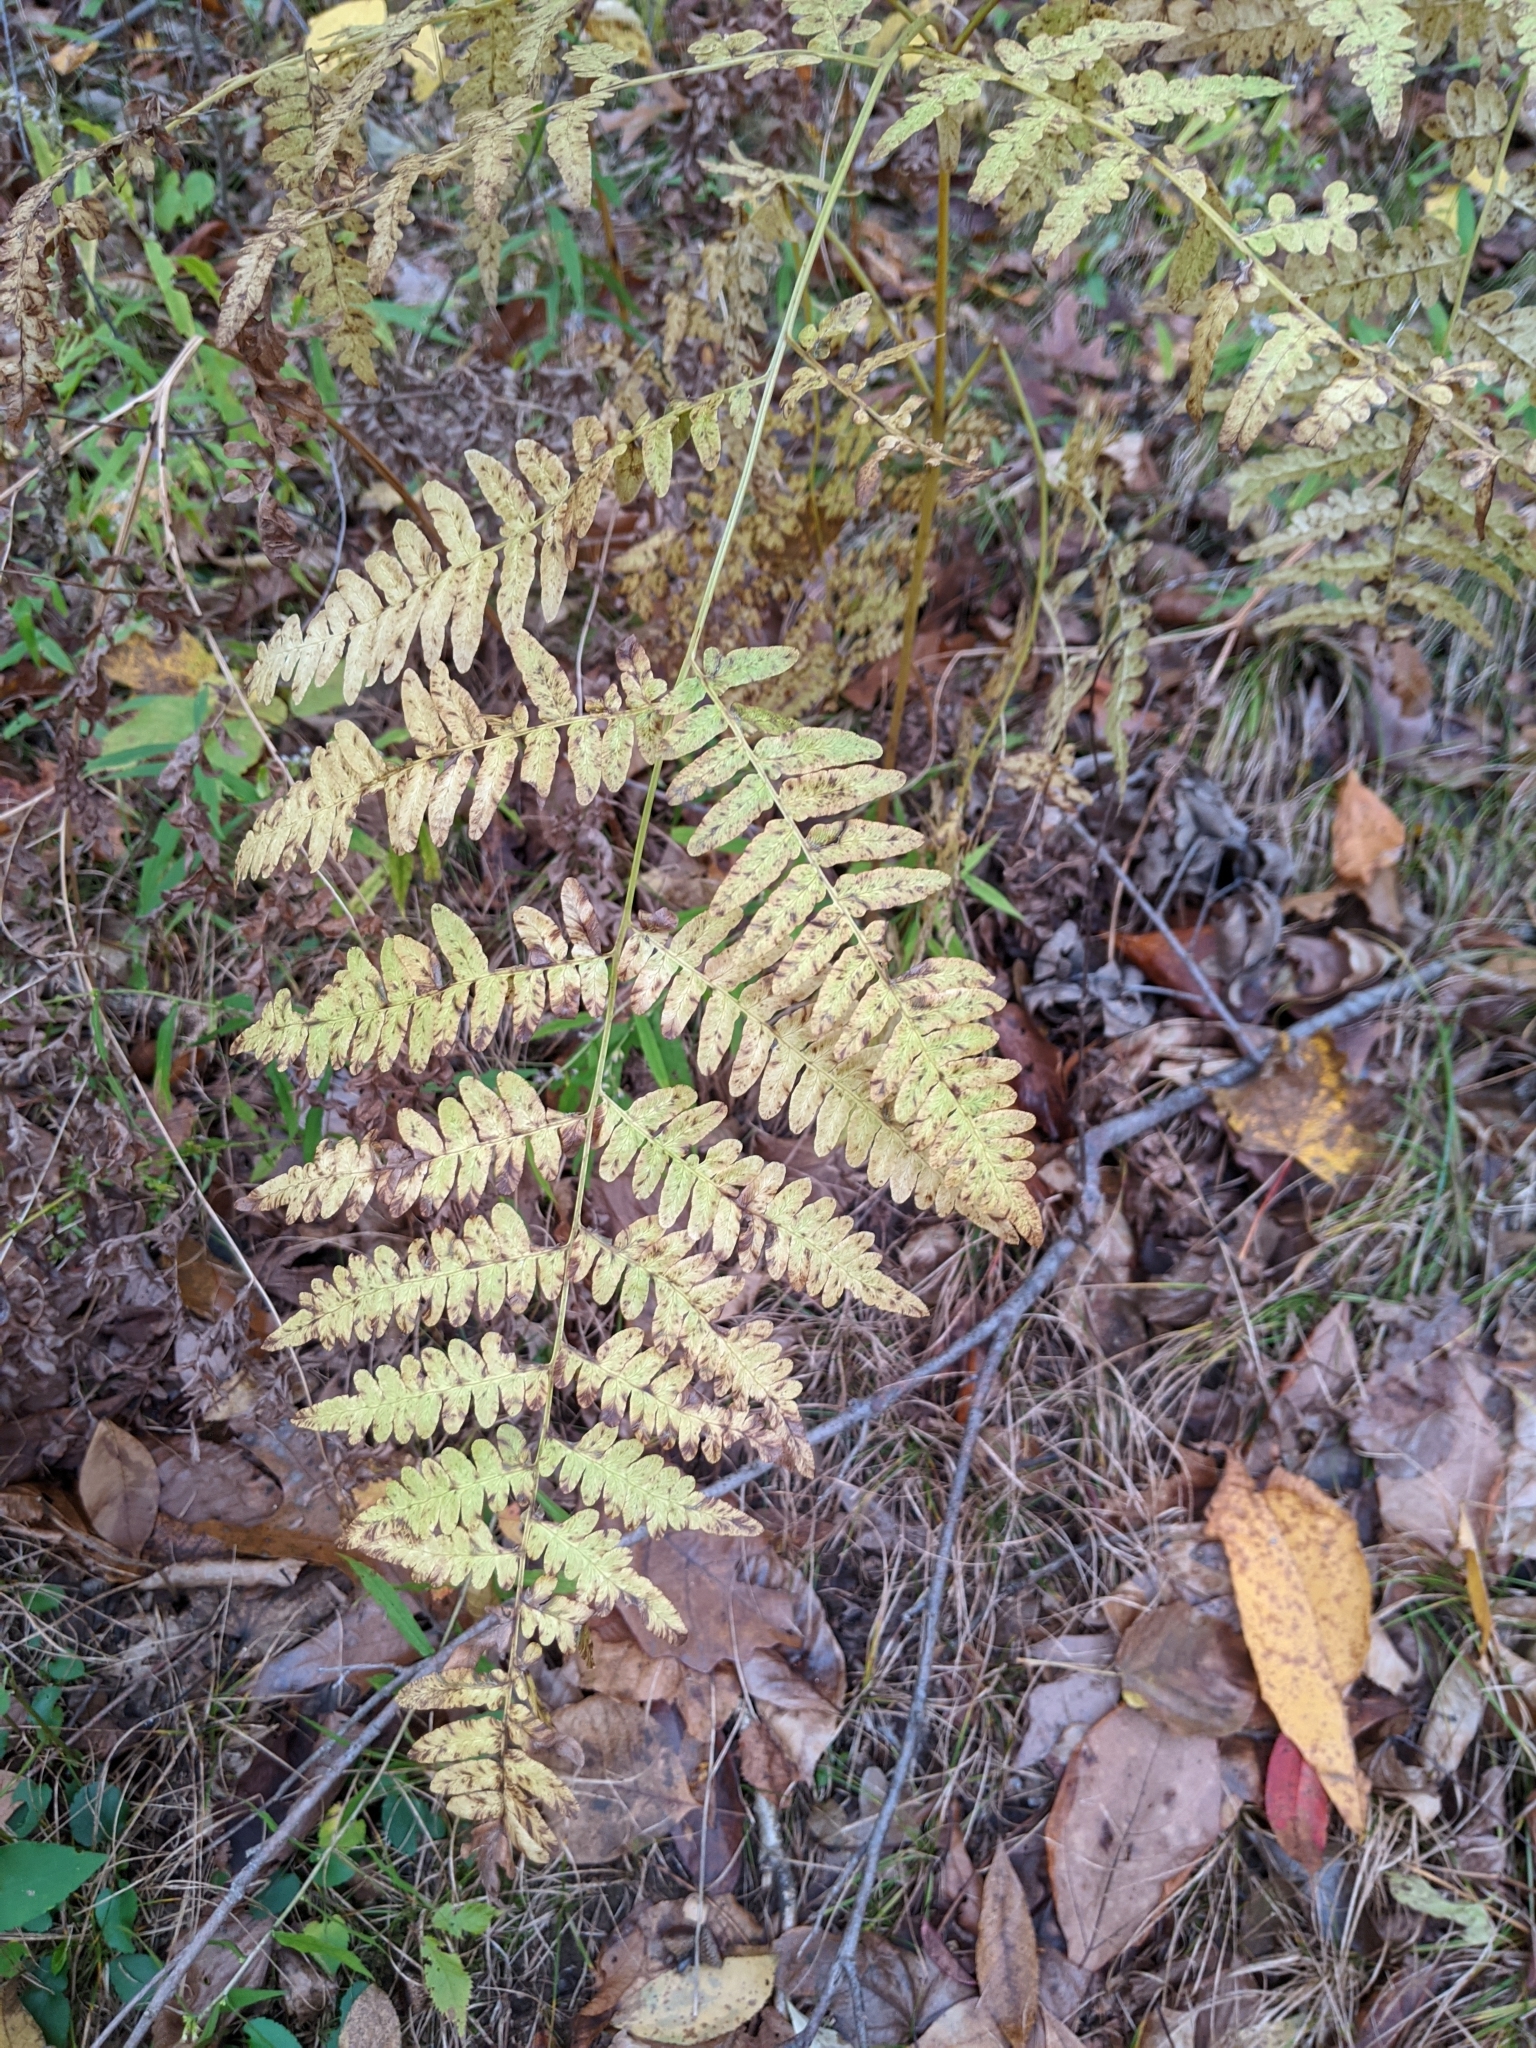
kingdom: Plantae
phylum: Tracheophyta
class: Polypodiopsida
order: Polypodiales
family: Dennstaedtiaceae
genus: Pteridium
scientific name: Pteridium aquilinum
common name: Bracken
